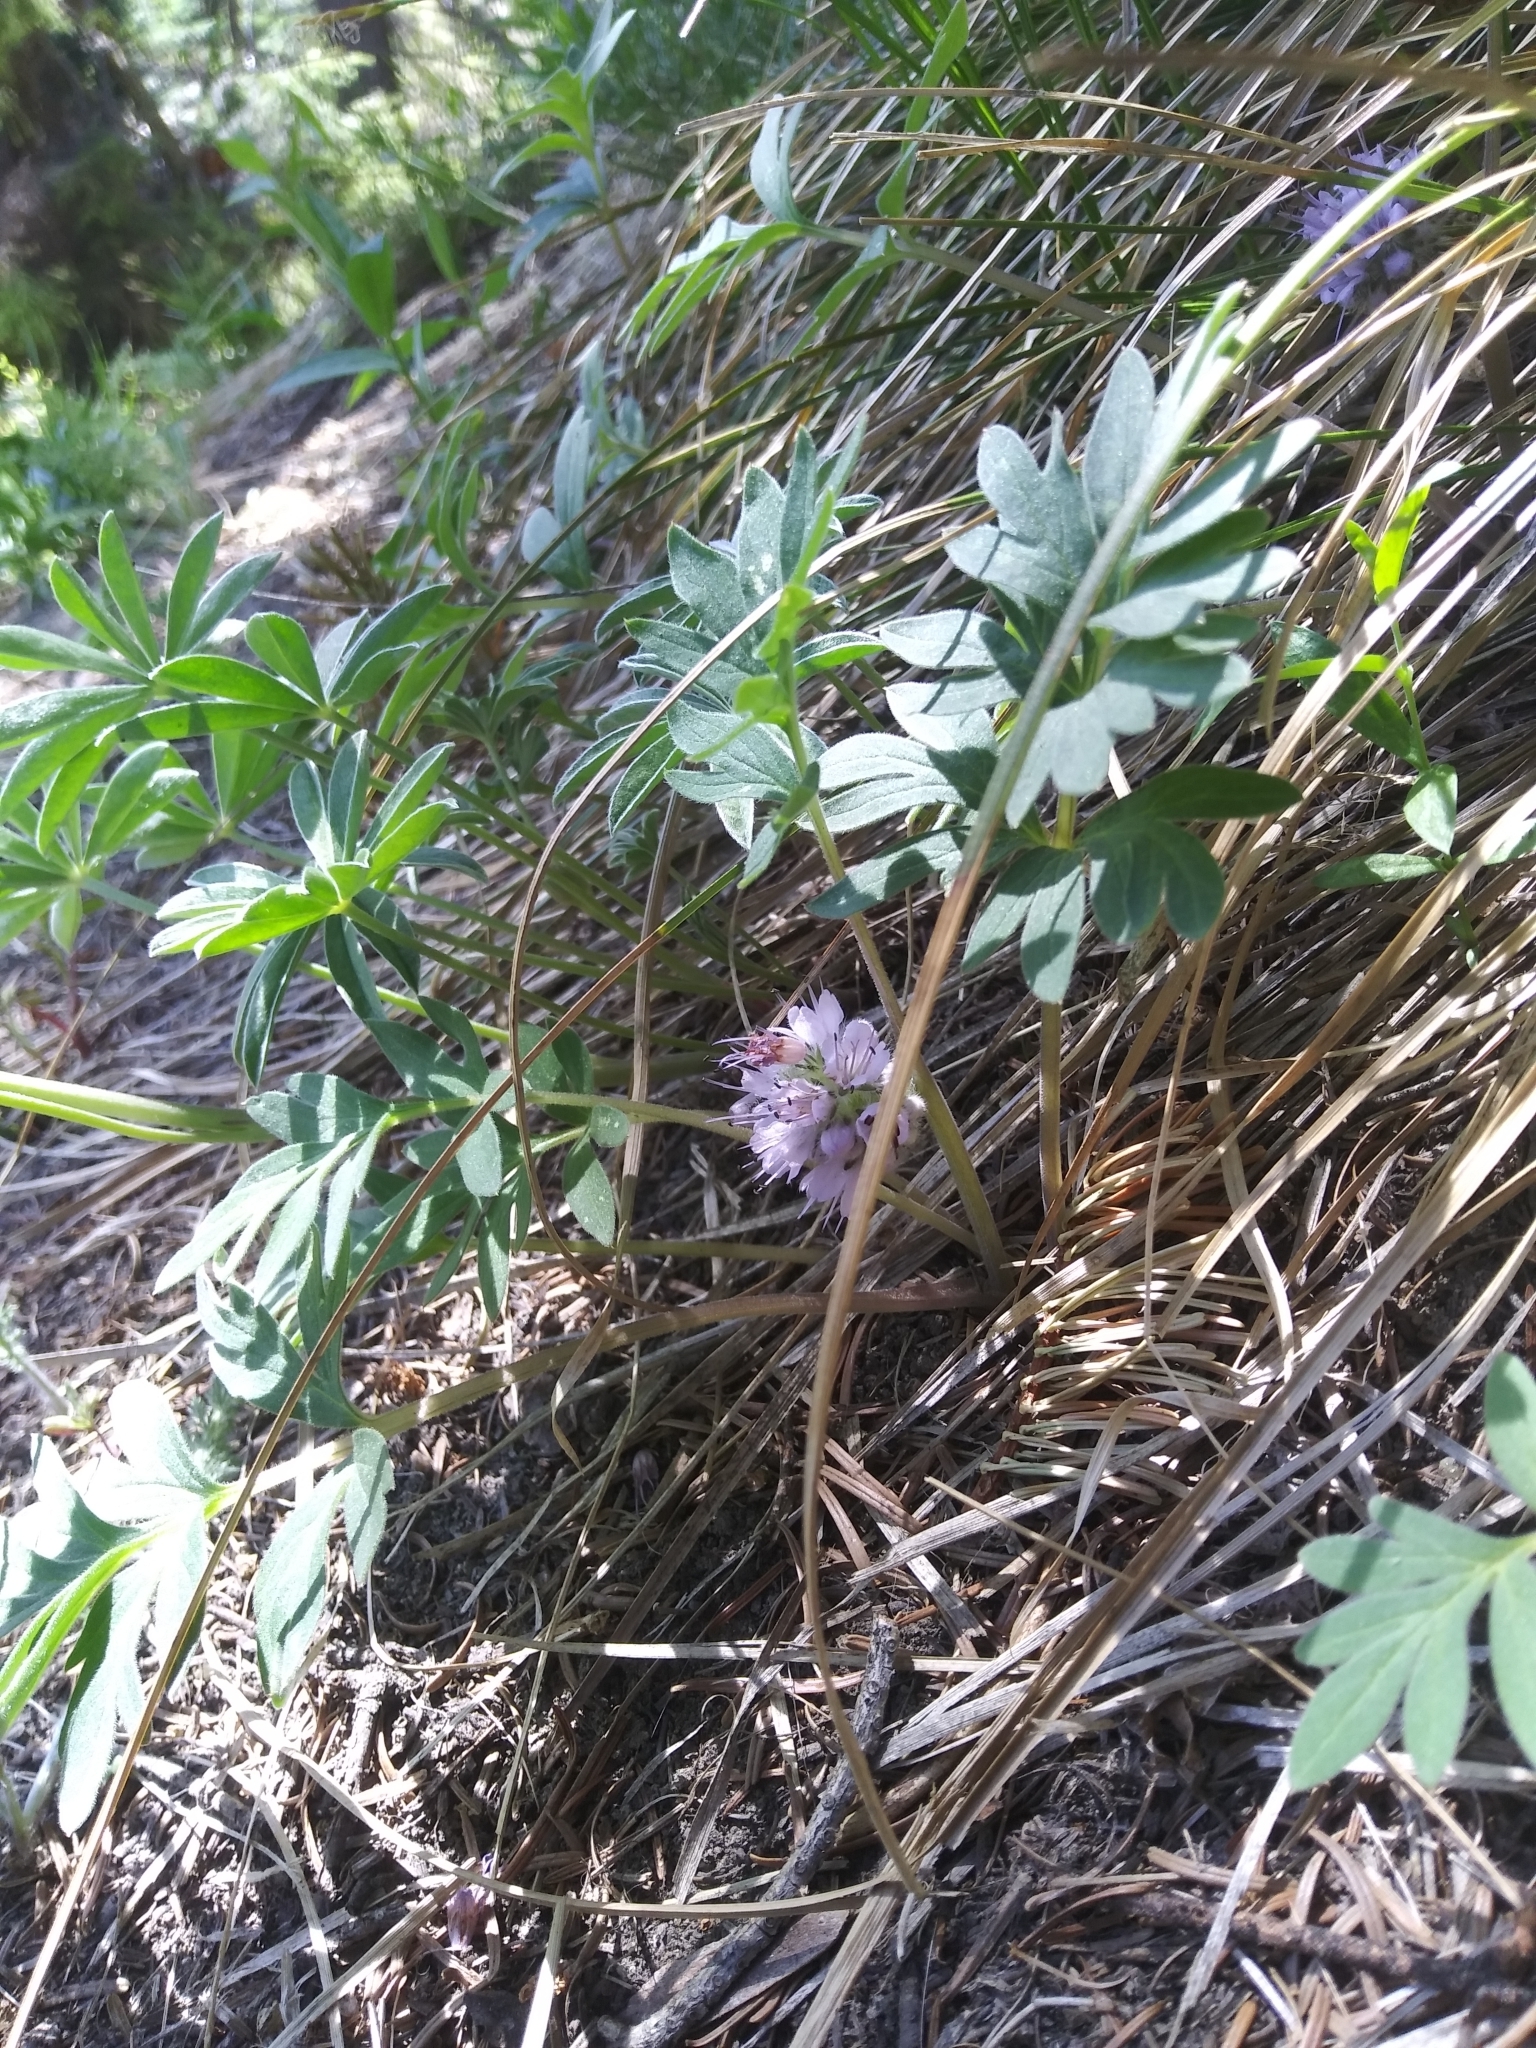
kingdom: Plantae
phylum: Tracheophyta
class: Magnoliopsida
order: Boraginales
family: Hydrophyllaceae
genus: Hydrophyllum
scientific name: Hydrophyllum capitatum
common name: Woollen-breeches
